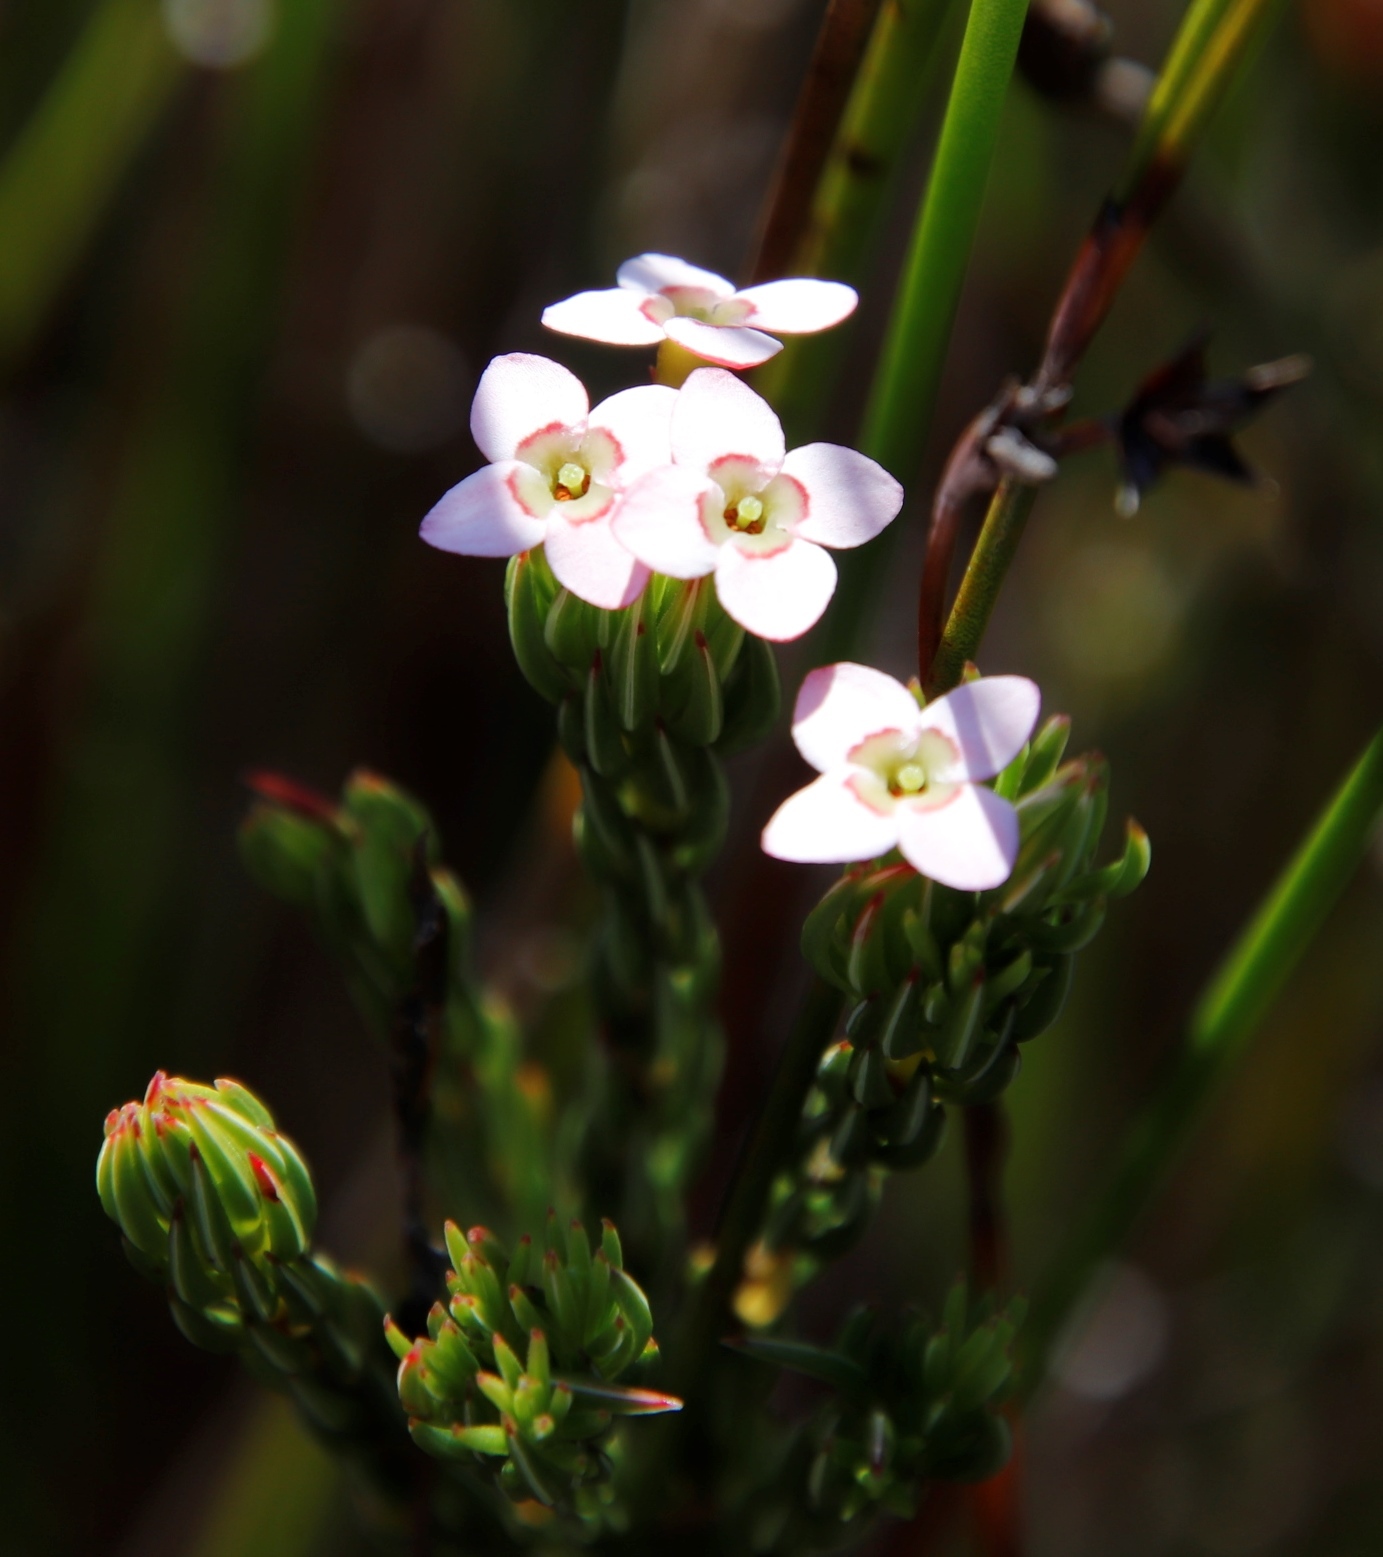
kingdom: Plantae
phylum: Tracheophyta
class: Magnoliopsida
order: Ericales
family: Ericaceae
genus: Erica
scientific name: Erica fastigiata
